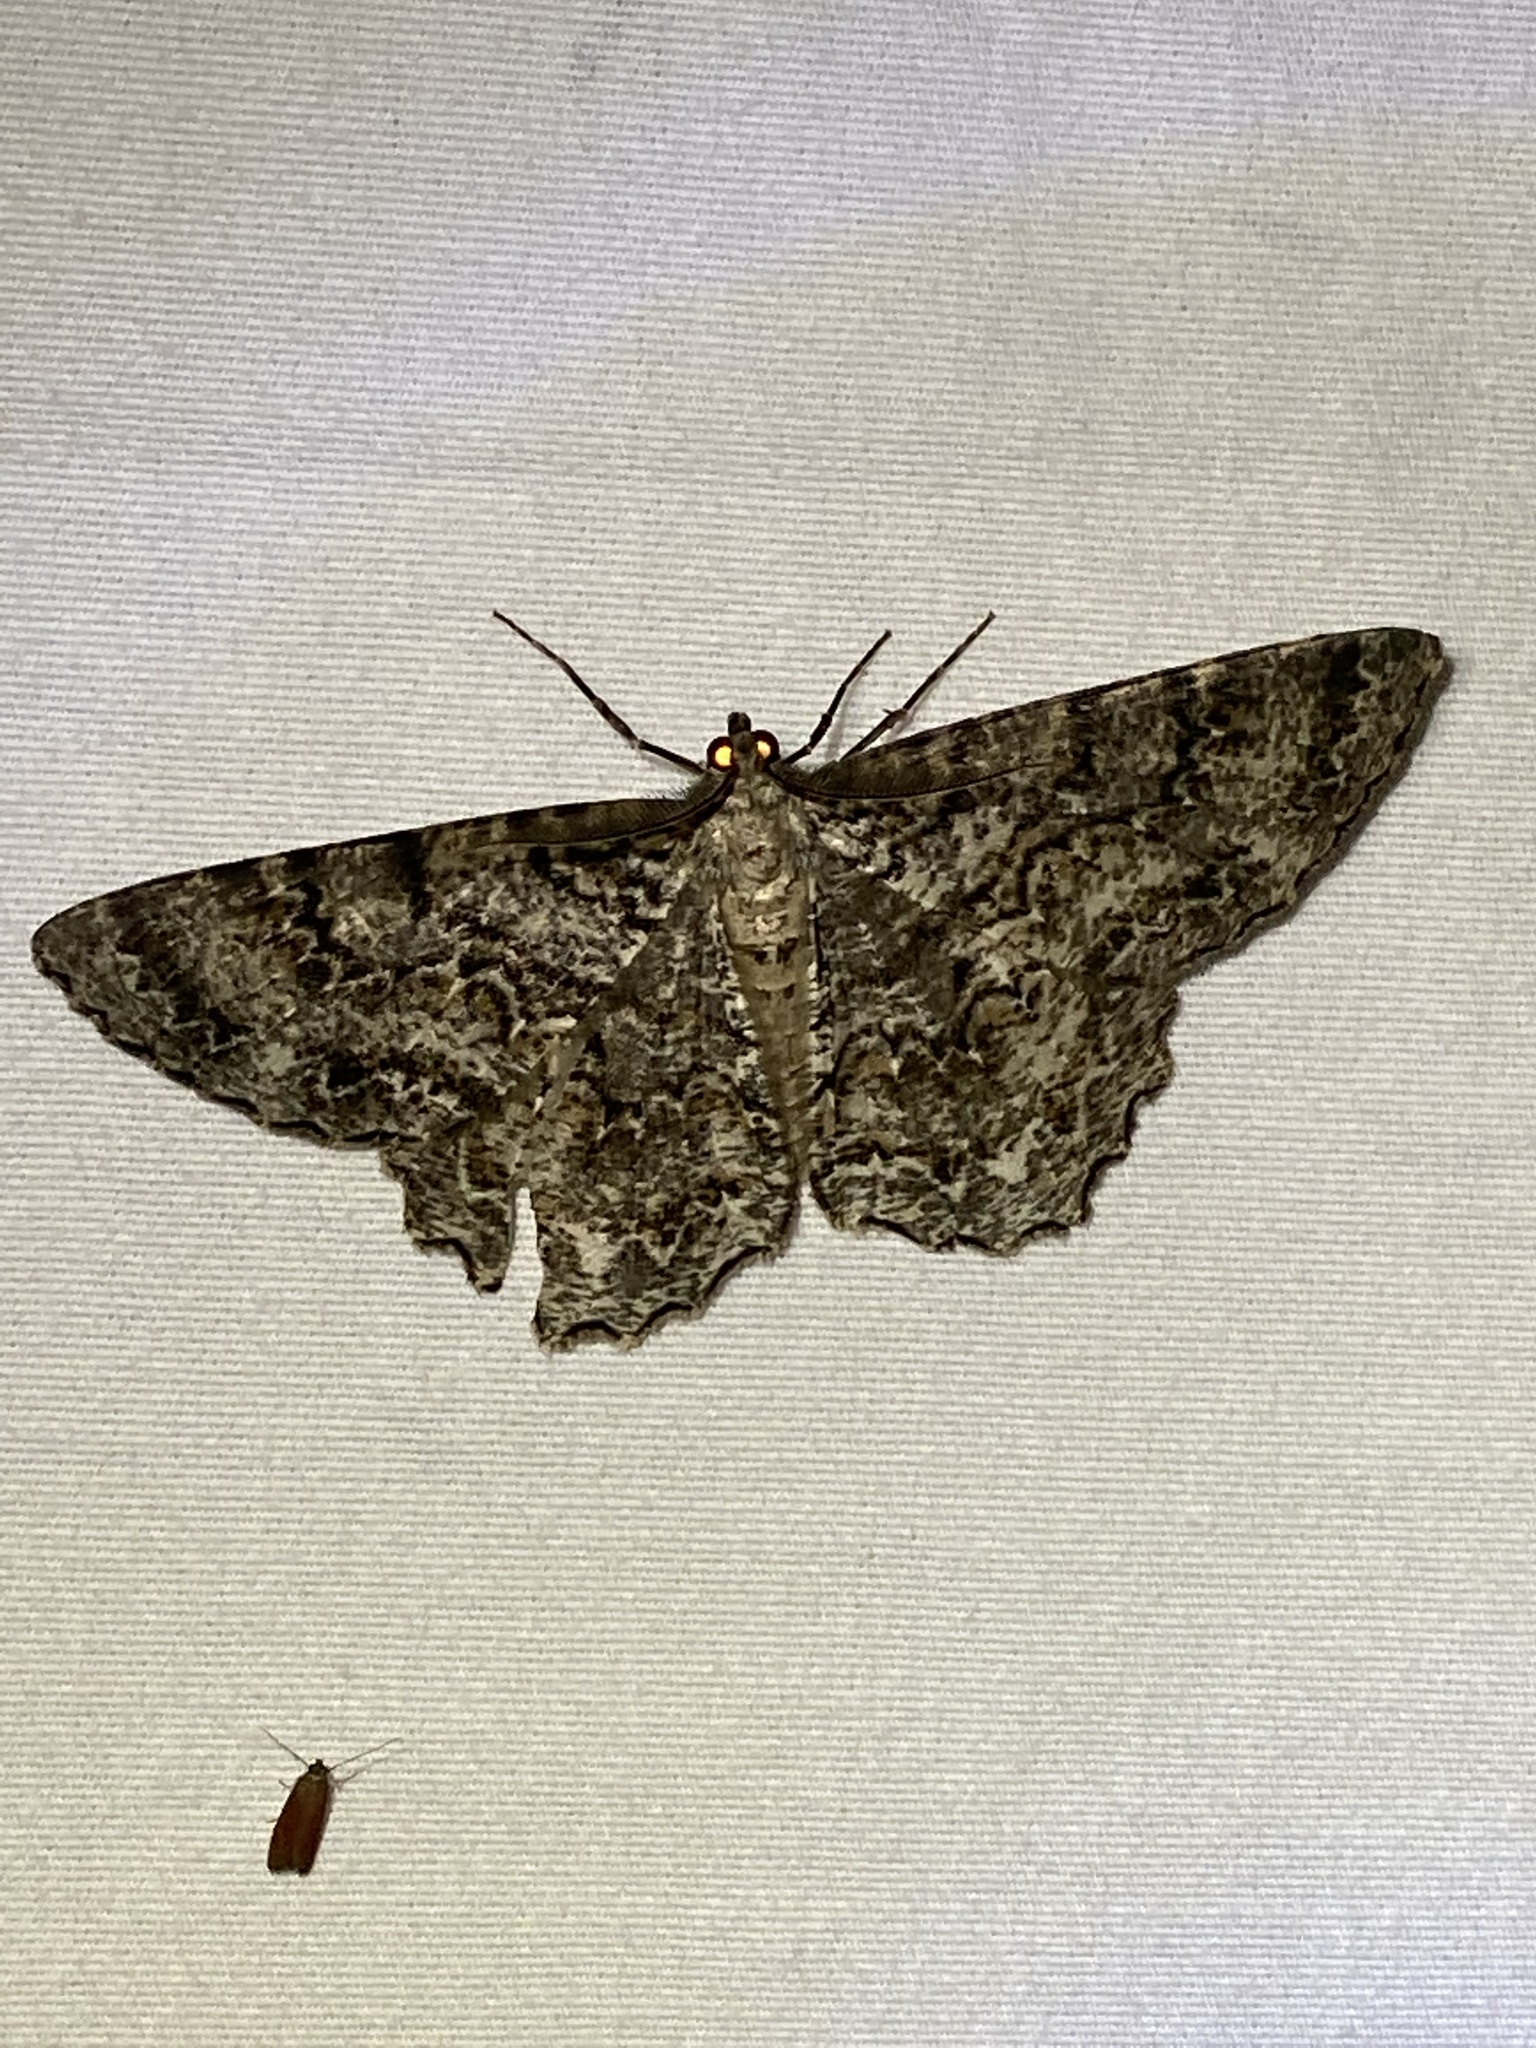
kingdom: Animalia
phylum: Arthropoda
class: Insecta
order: Lepidoptera
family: Geometridae
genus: Epimecis
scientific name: Epimecis hortaria
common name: Tulip-tree beauty
